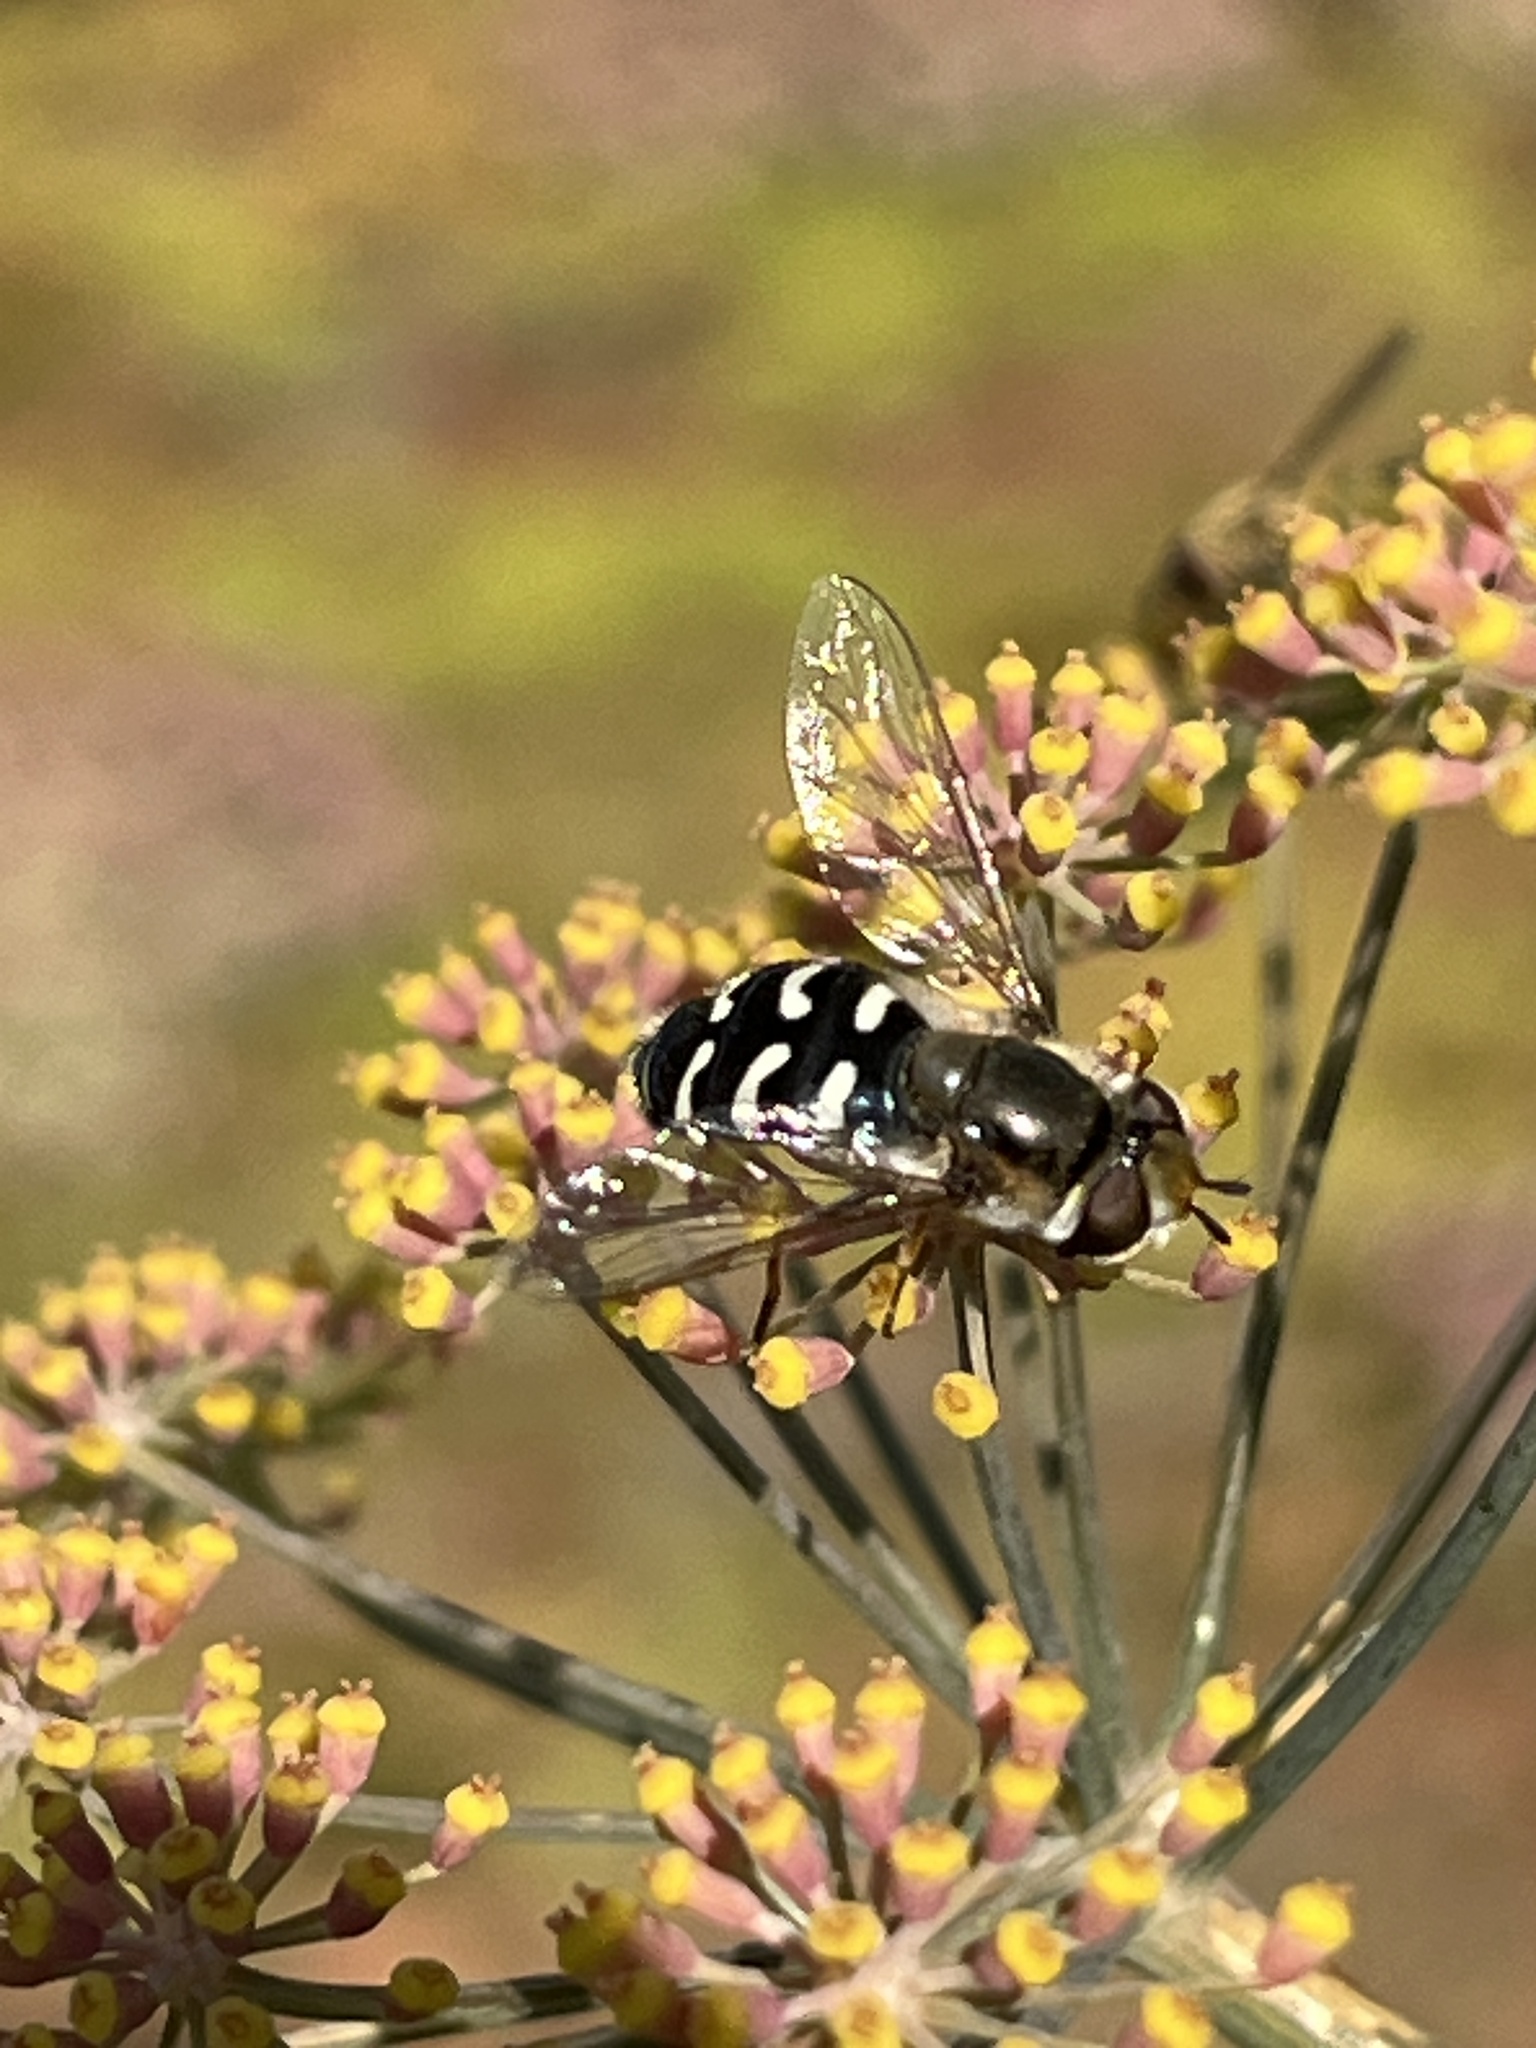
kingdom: Animalia
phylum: Arthropoda
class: Insecta
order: Diptera
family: Syrphidae
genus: Scaeva
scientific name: Scaeva pyrastri
